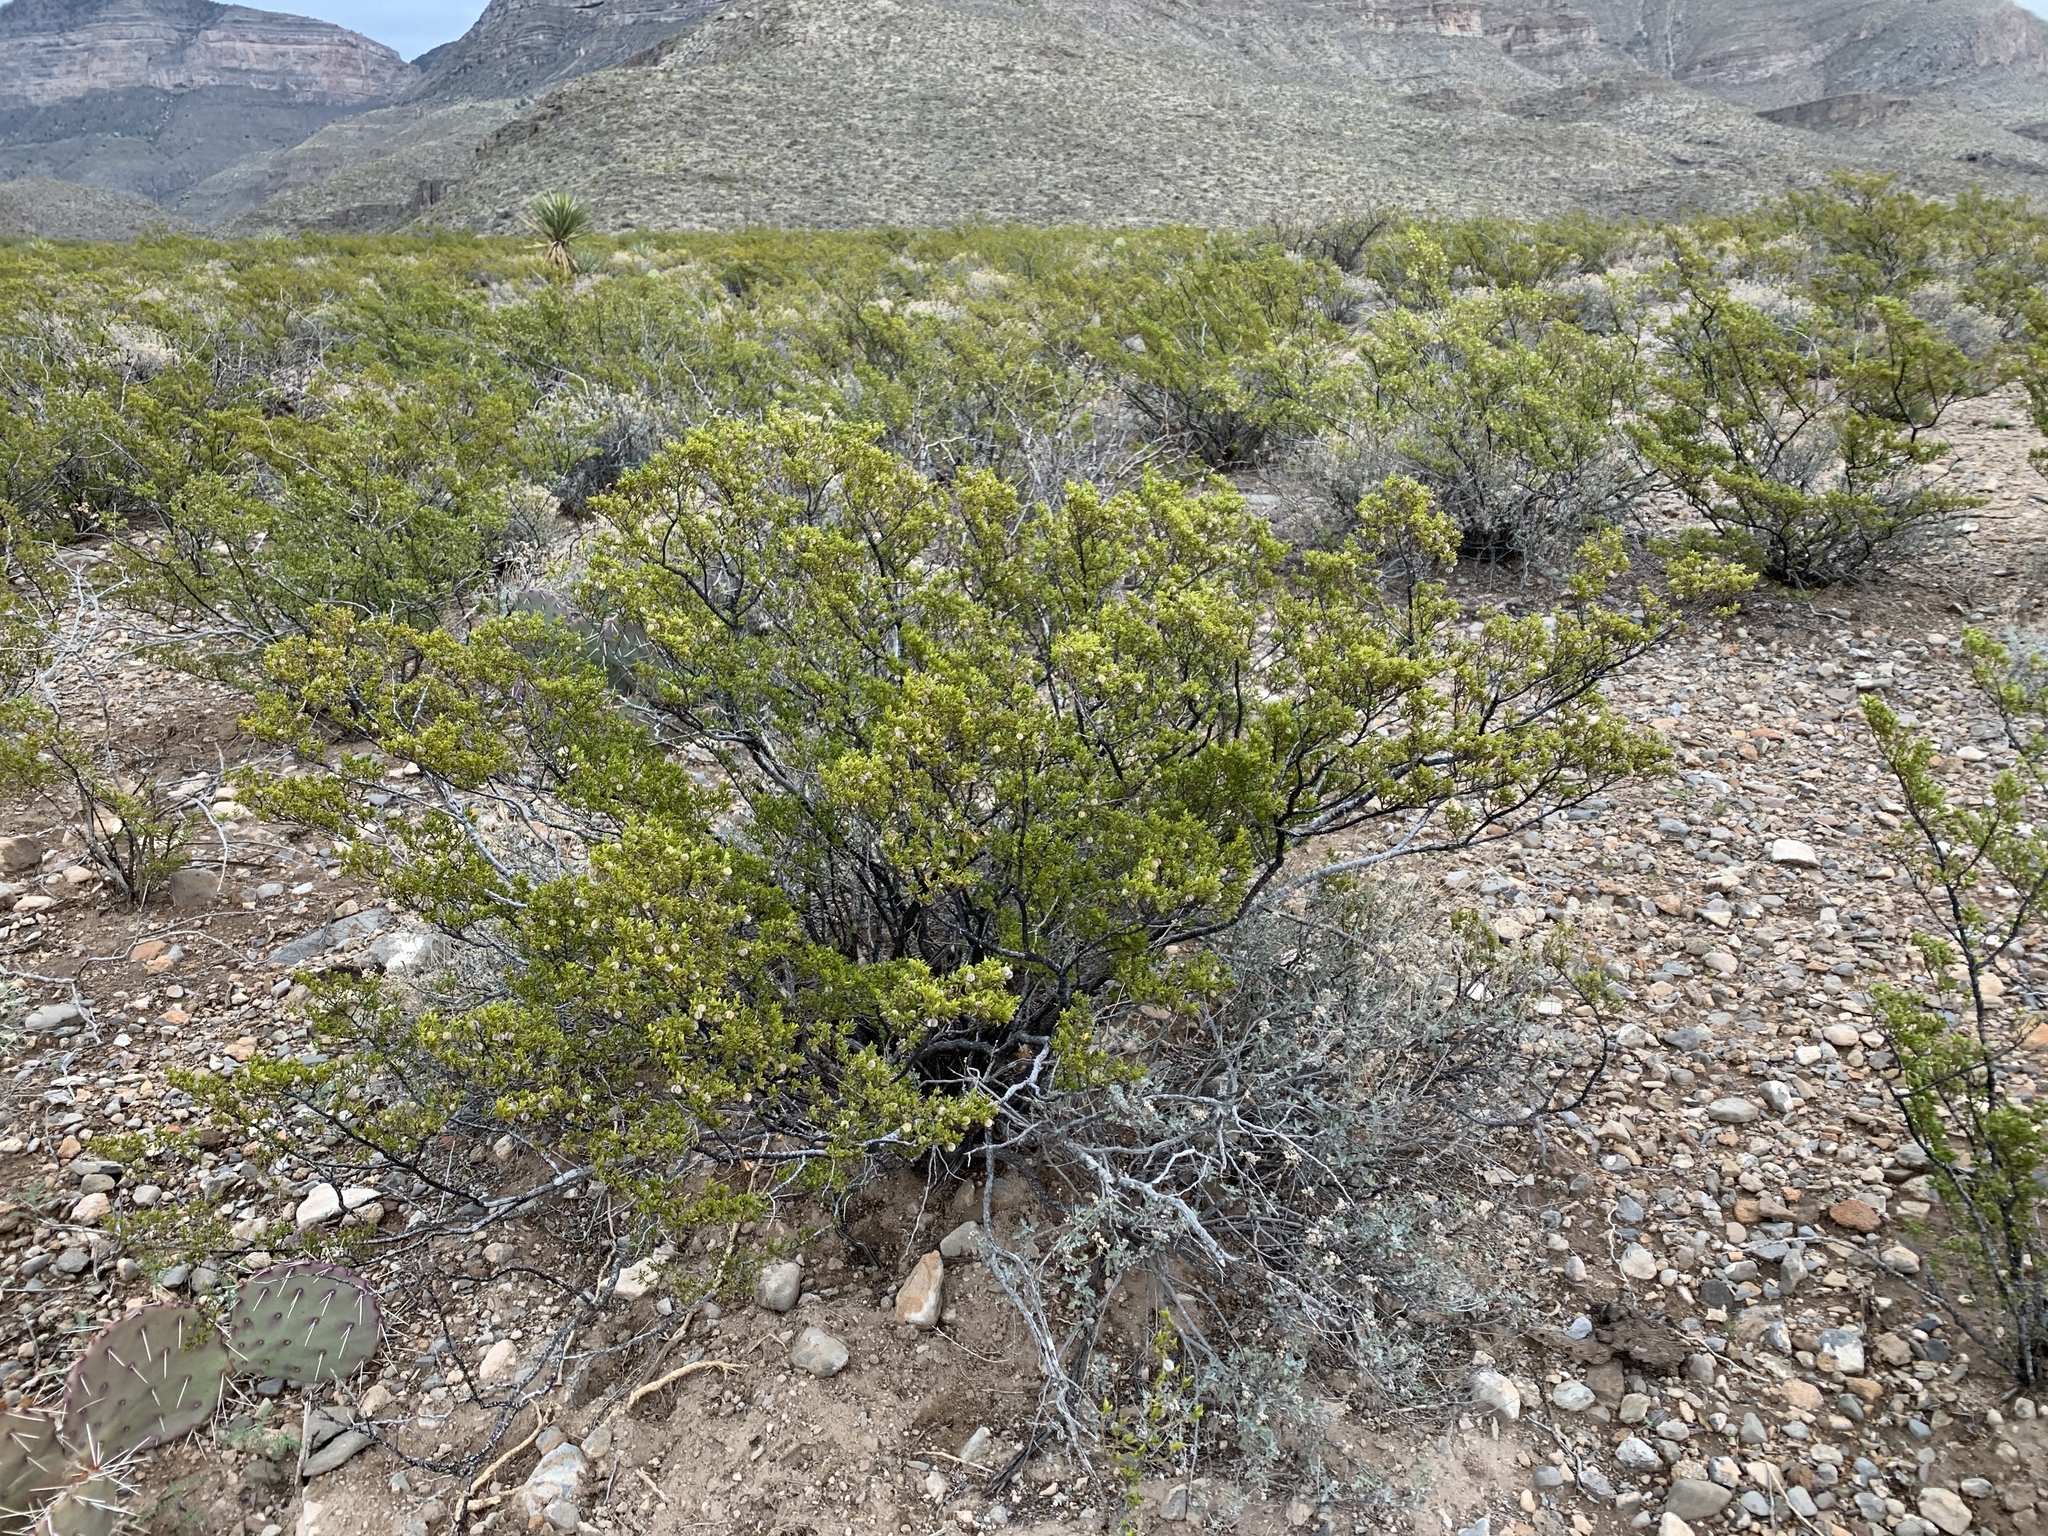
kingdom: Plantae
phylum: Tracheophyta
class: Magnoliopsida
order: Zygophyllales
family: Zygophyllaceae
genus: Larrea
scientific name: Larrea tridentata
